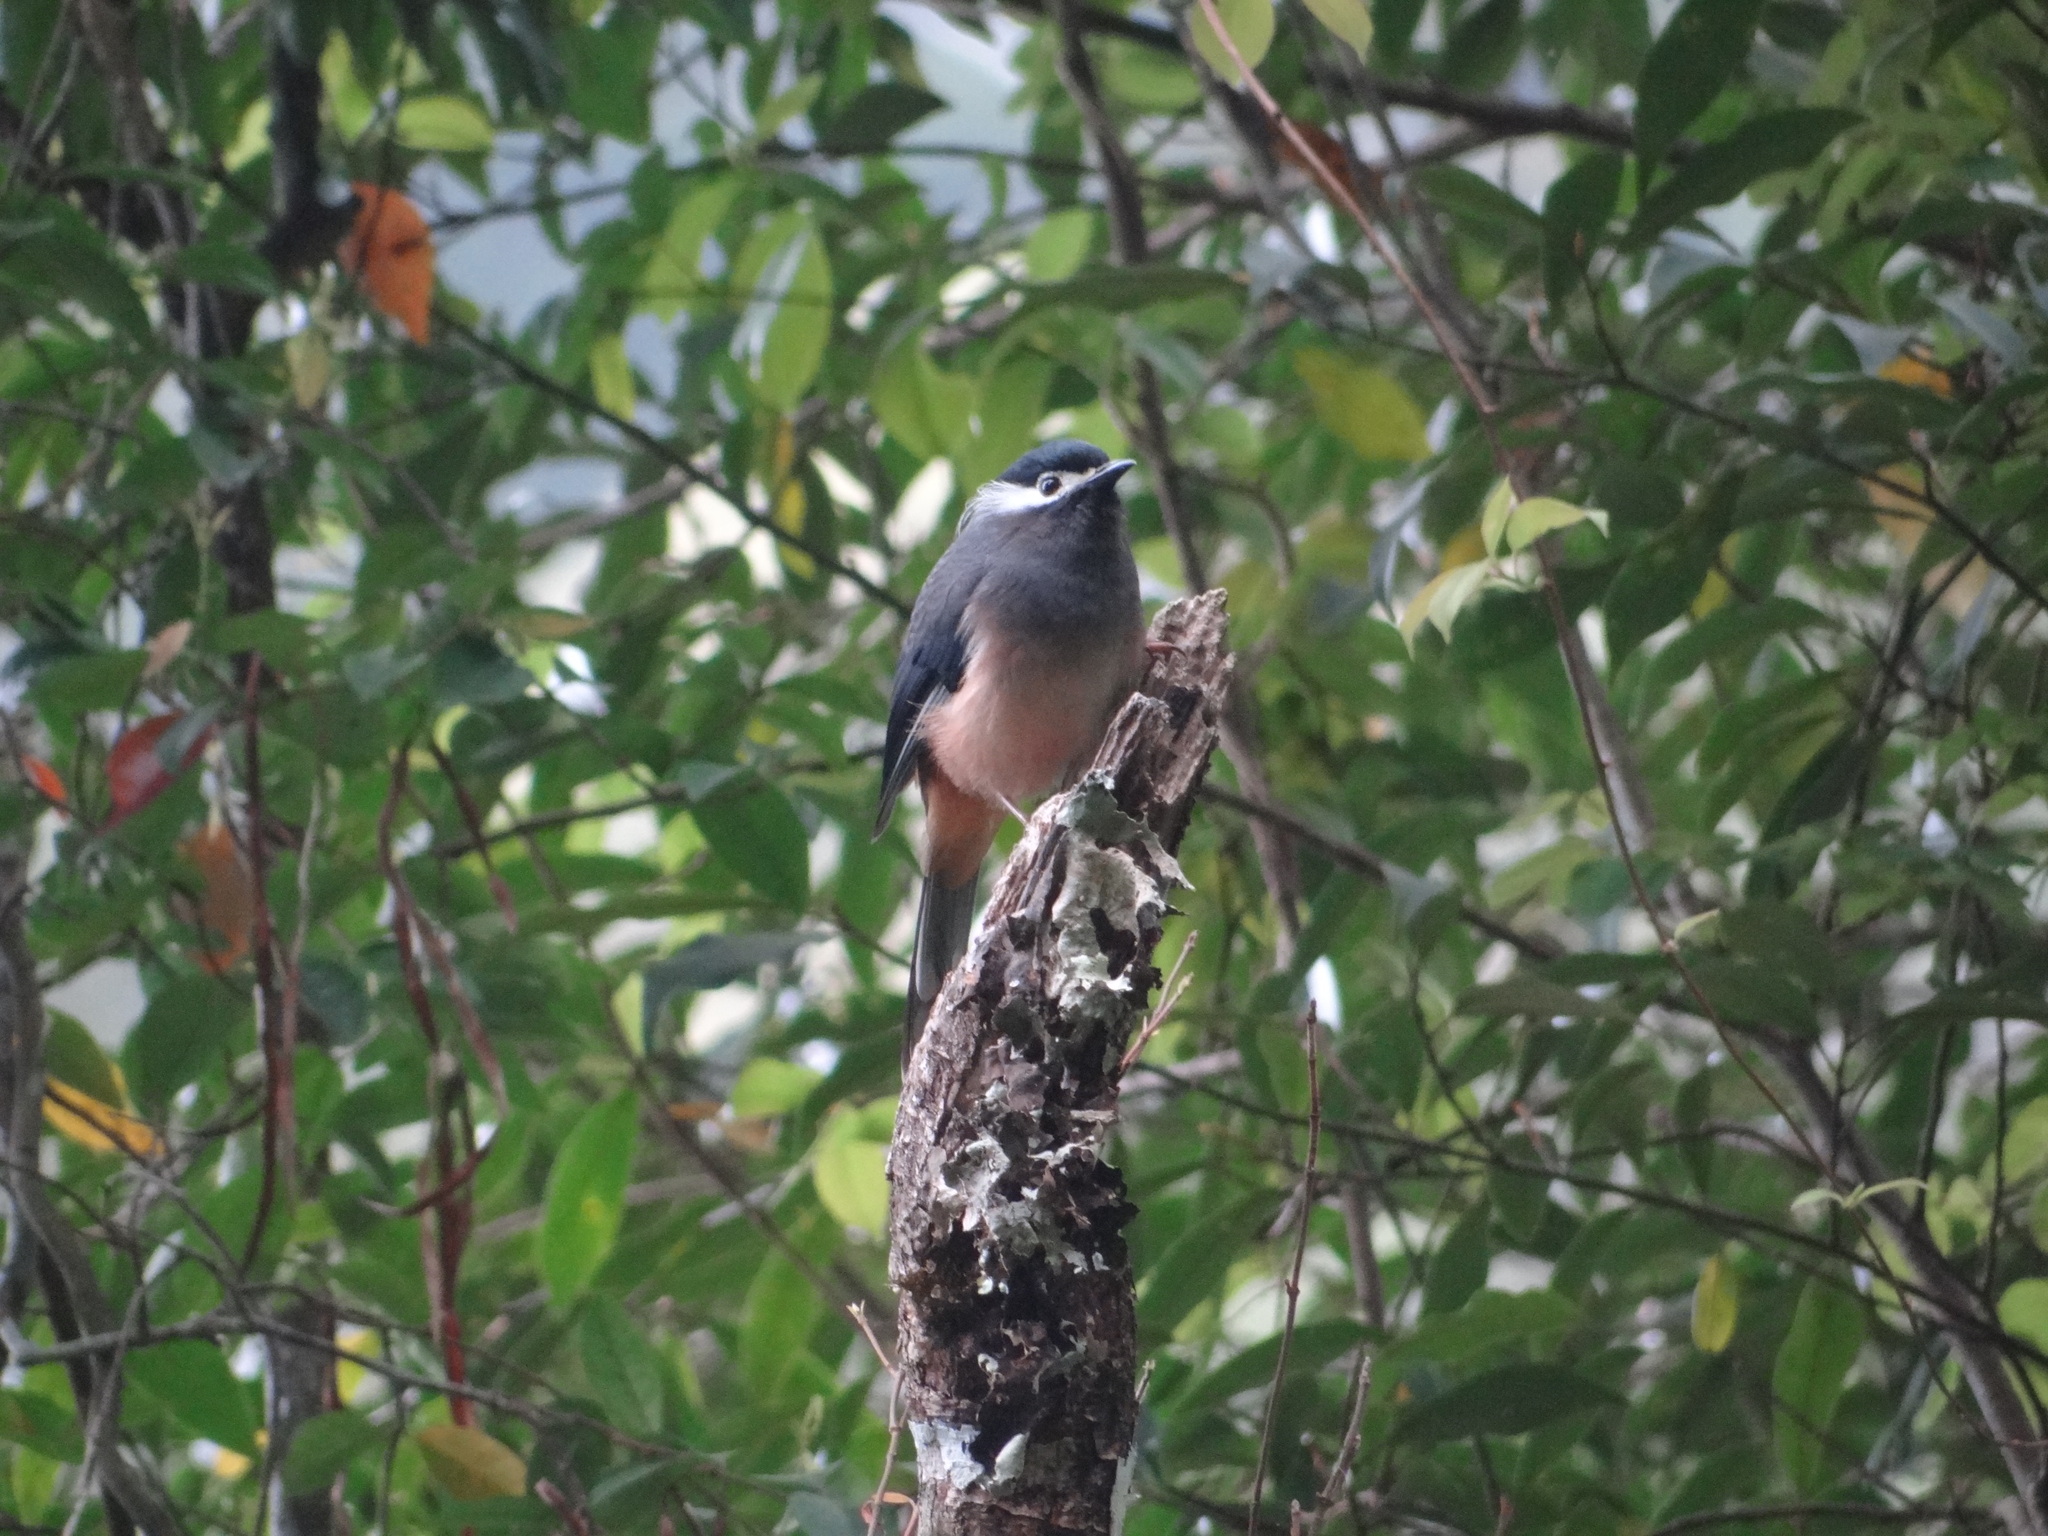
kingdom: Animalia
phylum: Chordata
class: Aves
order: Passeriformes
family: Leiothrichidae
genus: Heterophasia
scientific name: Heterophasia auricularis
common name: White-eared sibia
